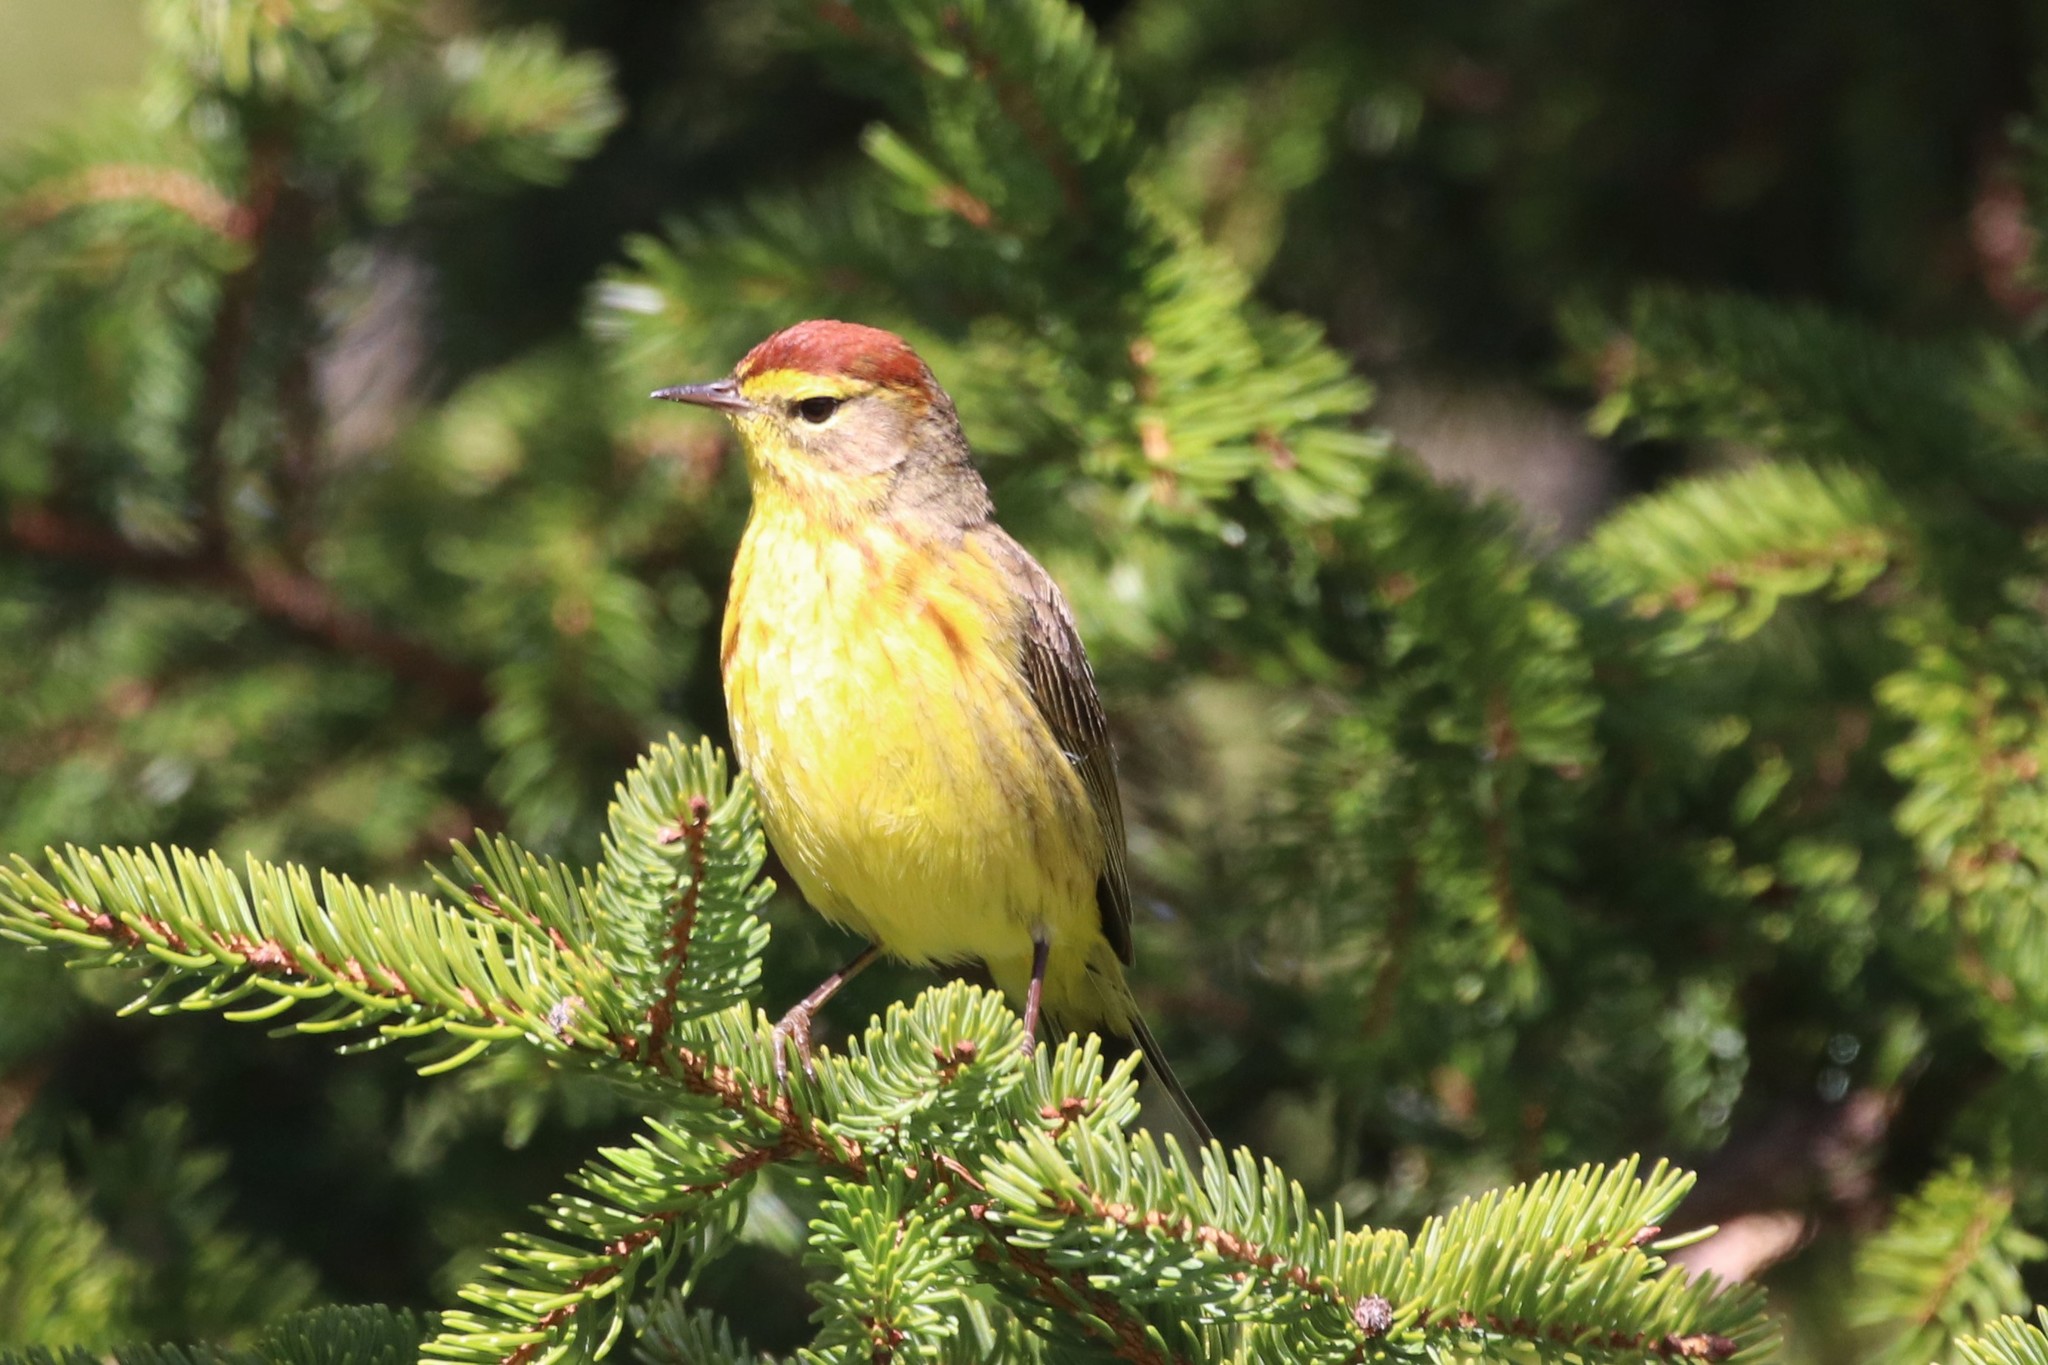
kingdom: Animalia
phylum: Chordata
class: Aves
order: Passeriformes
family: Parulidae
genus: Setophaga
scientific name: Setophaga palmarum
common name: Palm warbler
